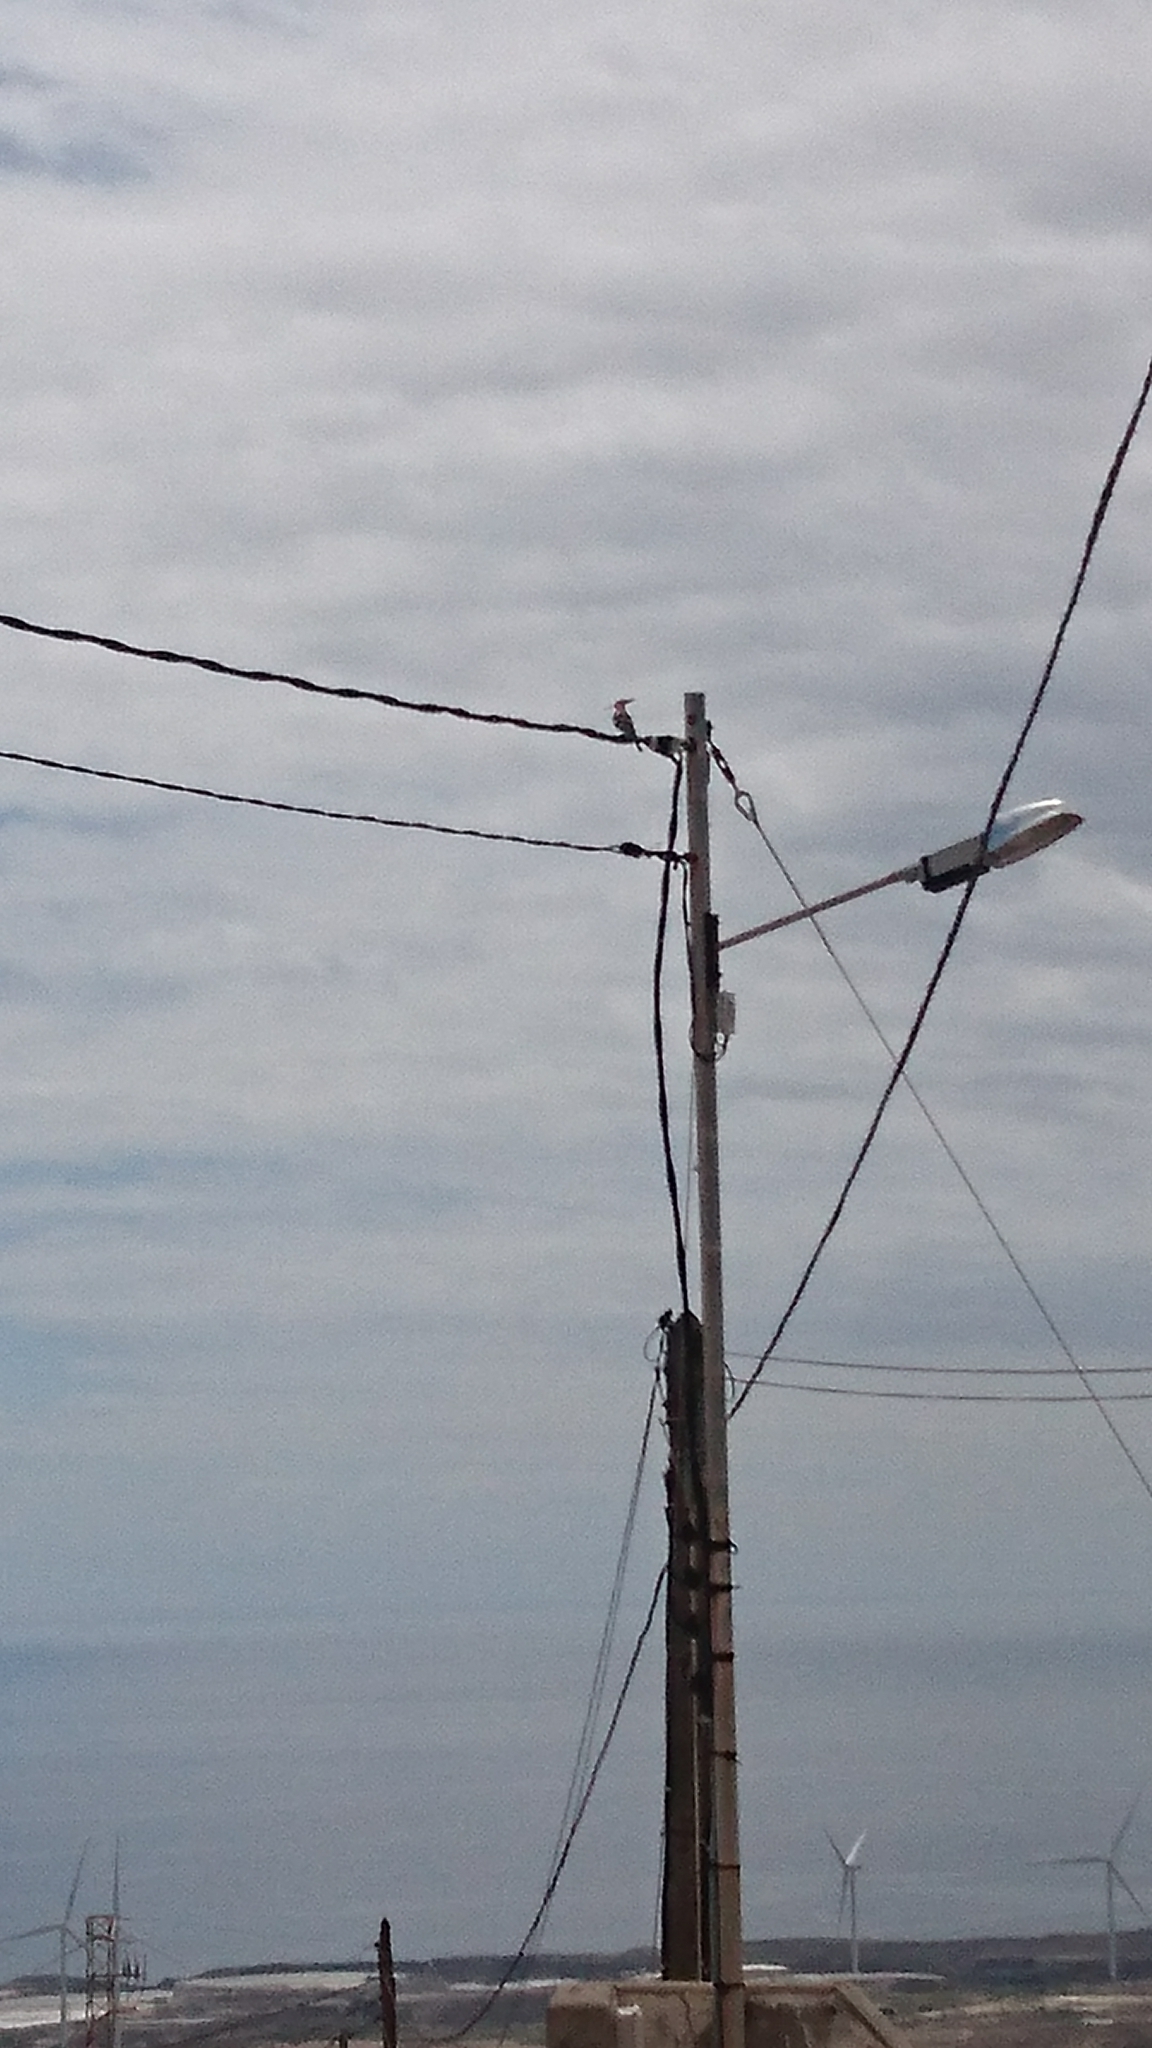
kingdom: Animalia
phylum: Chordata
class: Aves
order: Bucerotiformes
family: Upupidae
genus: Upupa
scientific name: Upupa epops
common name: Eurasian hoopoe
